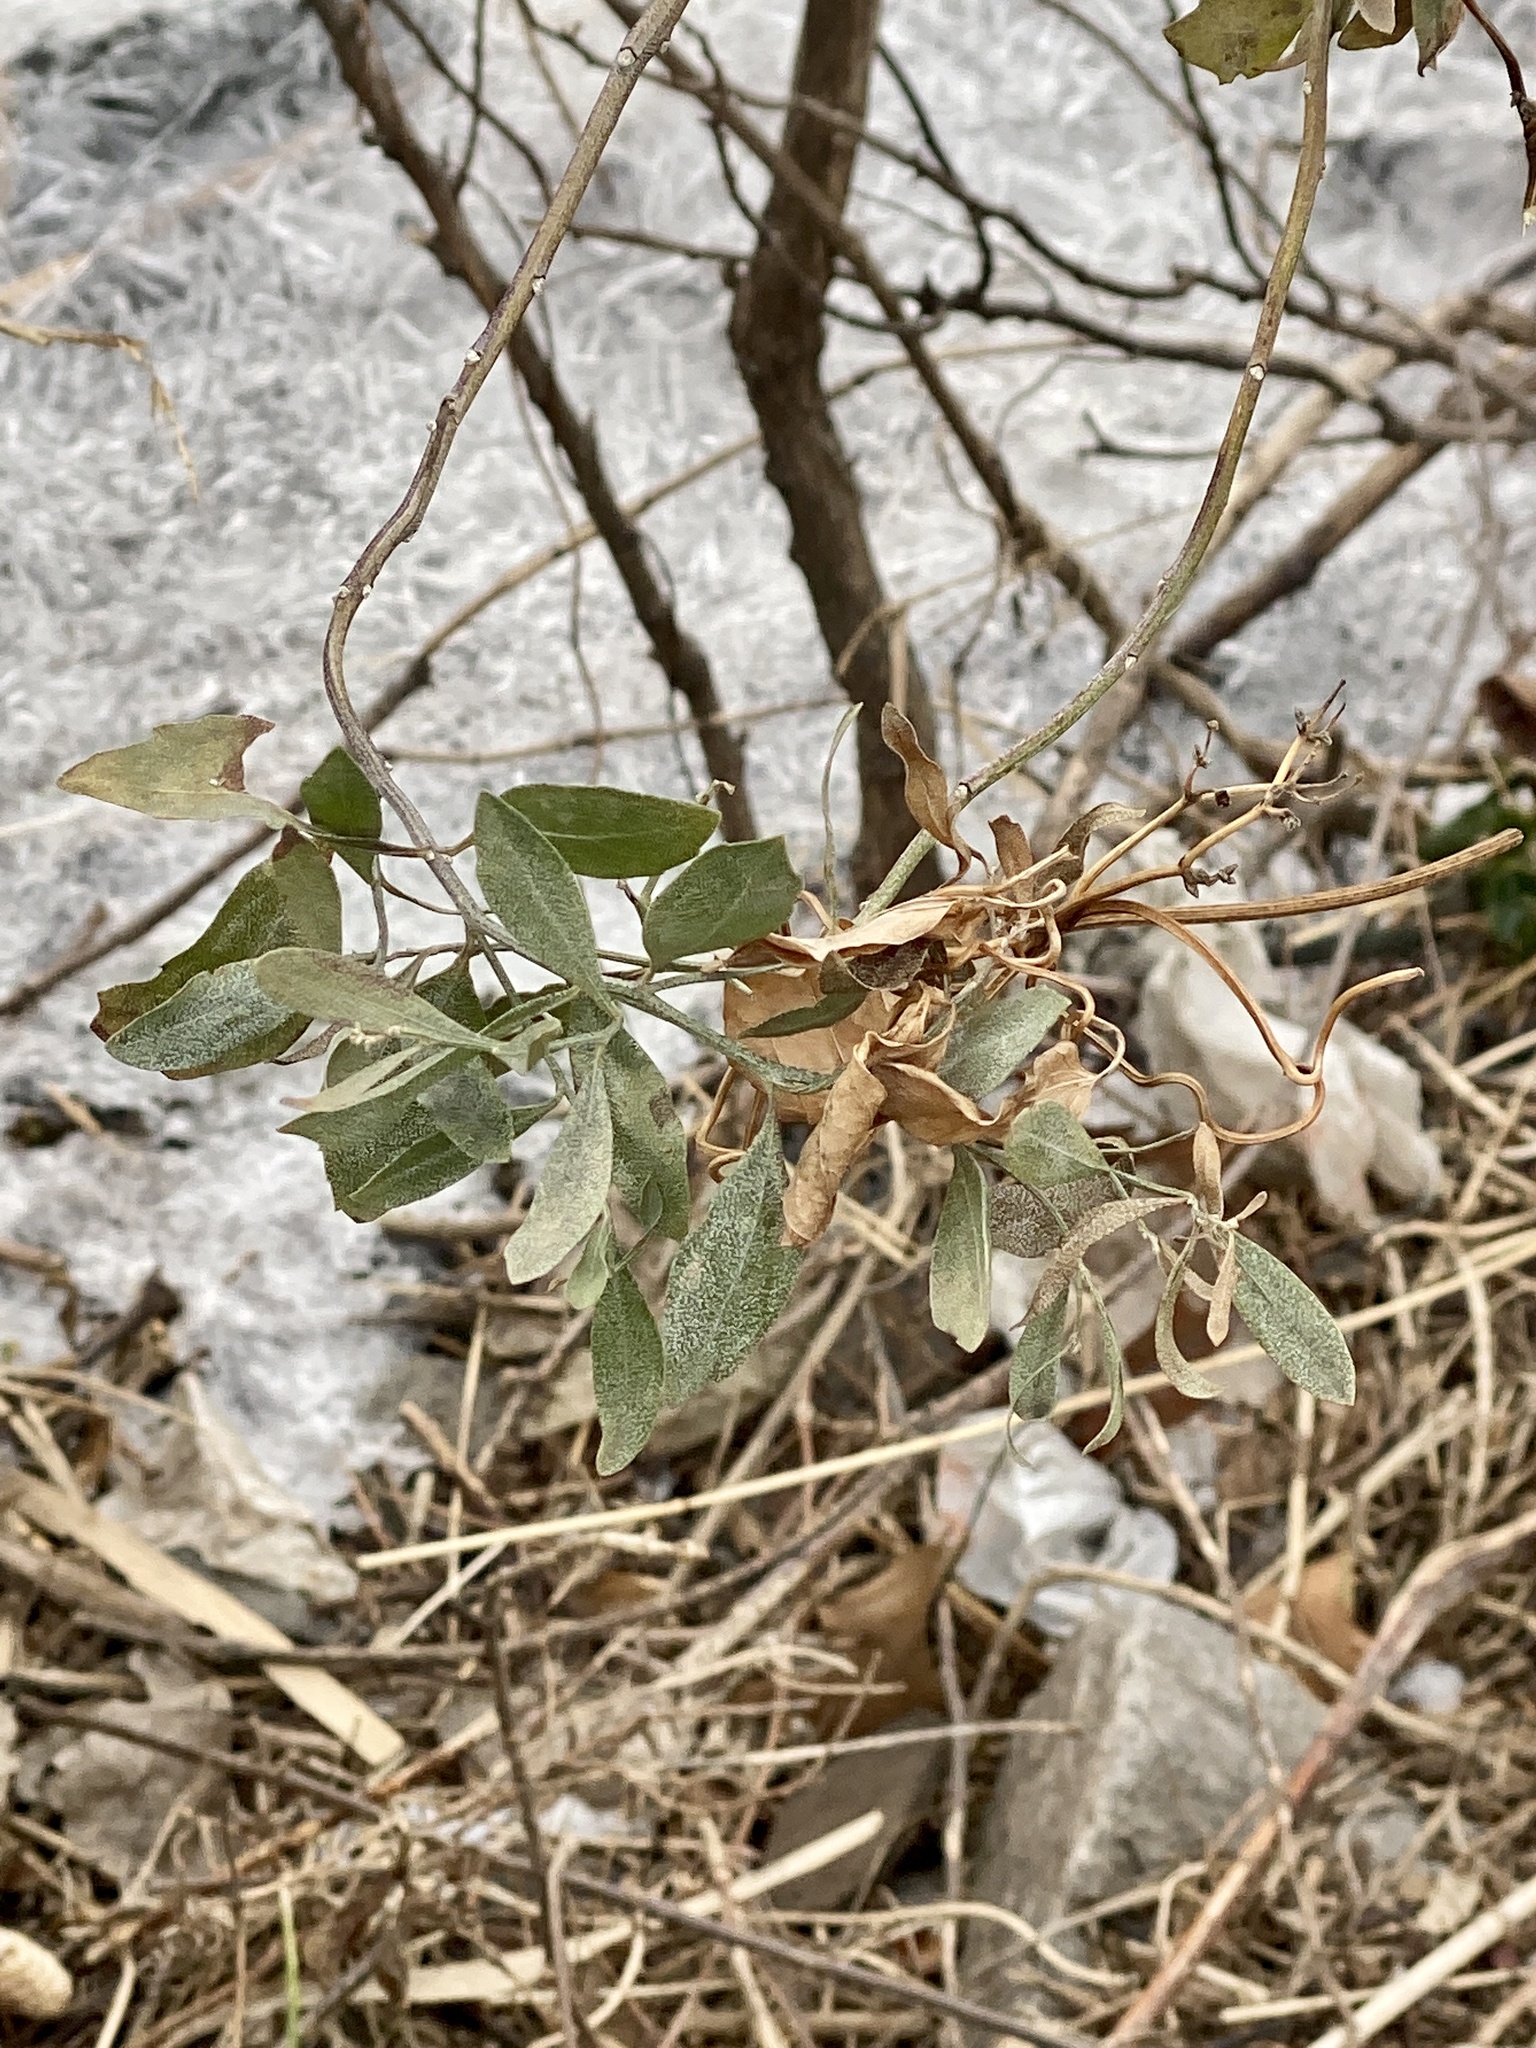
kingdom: Plantae
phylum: Tracheophyta
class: Magnoliopsida
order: Asterales
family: Asteraceae
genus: Baccharis
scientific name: Baccharis halimifolia
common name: Eastern baccharis
